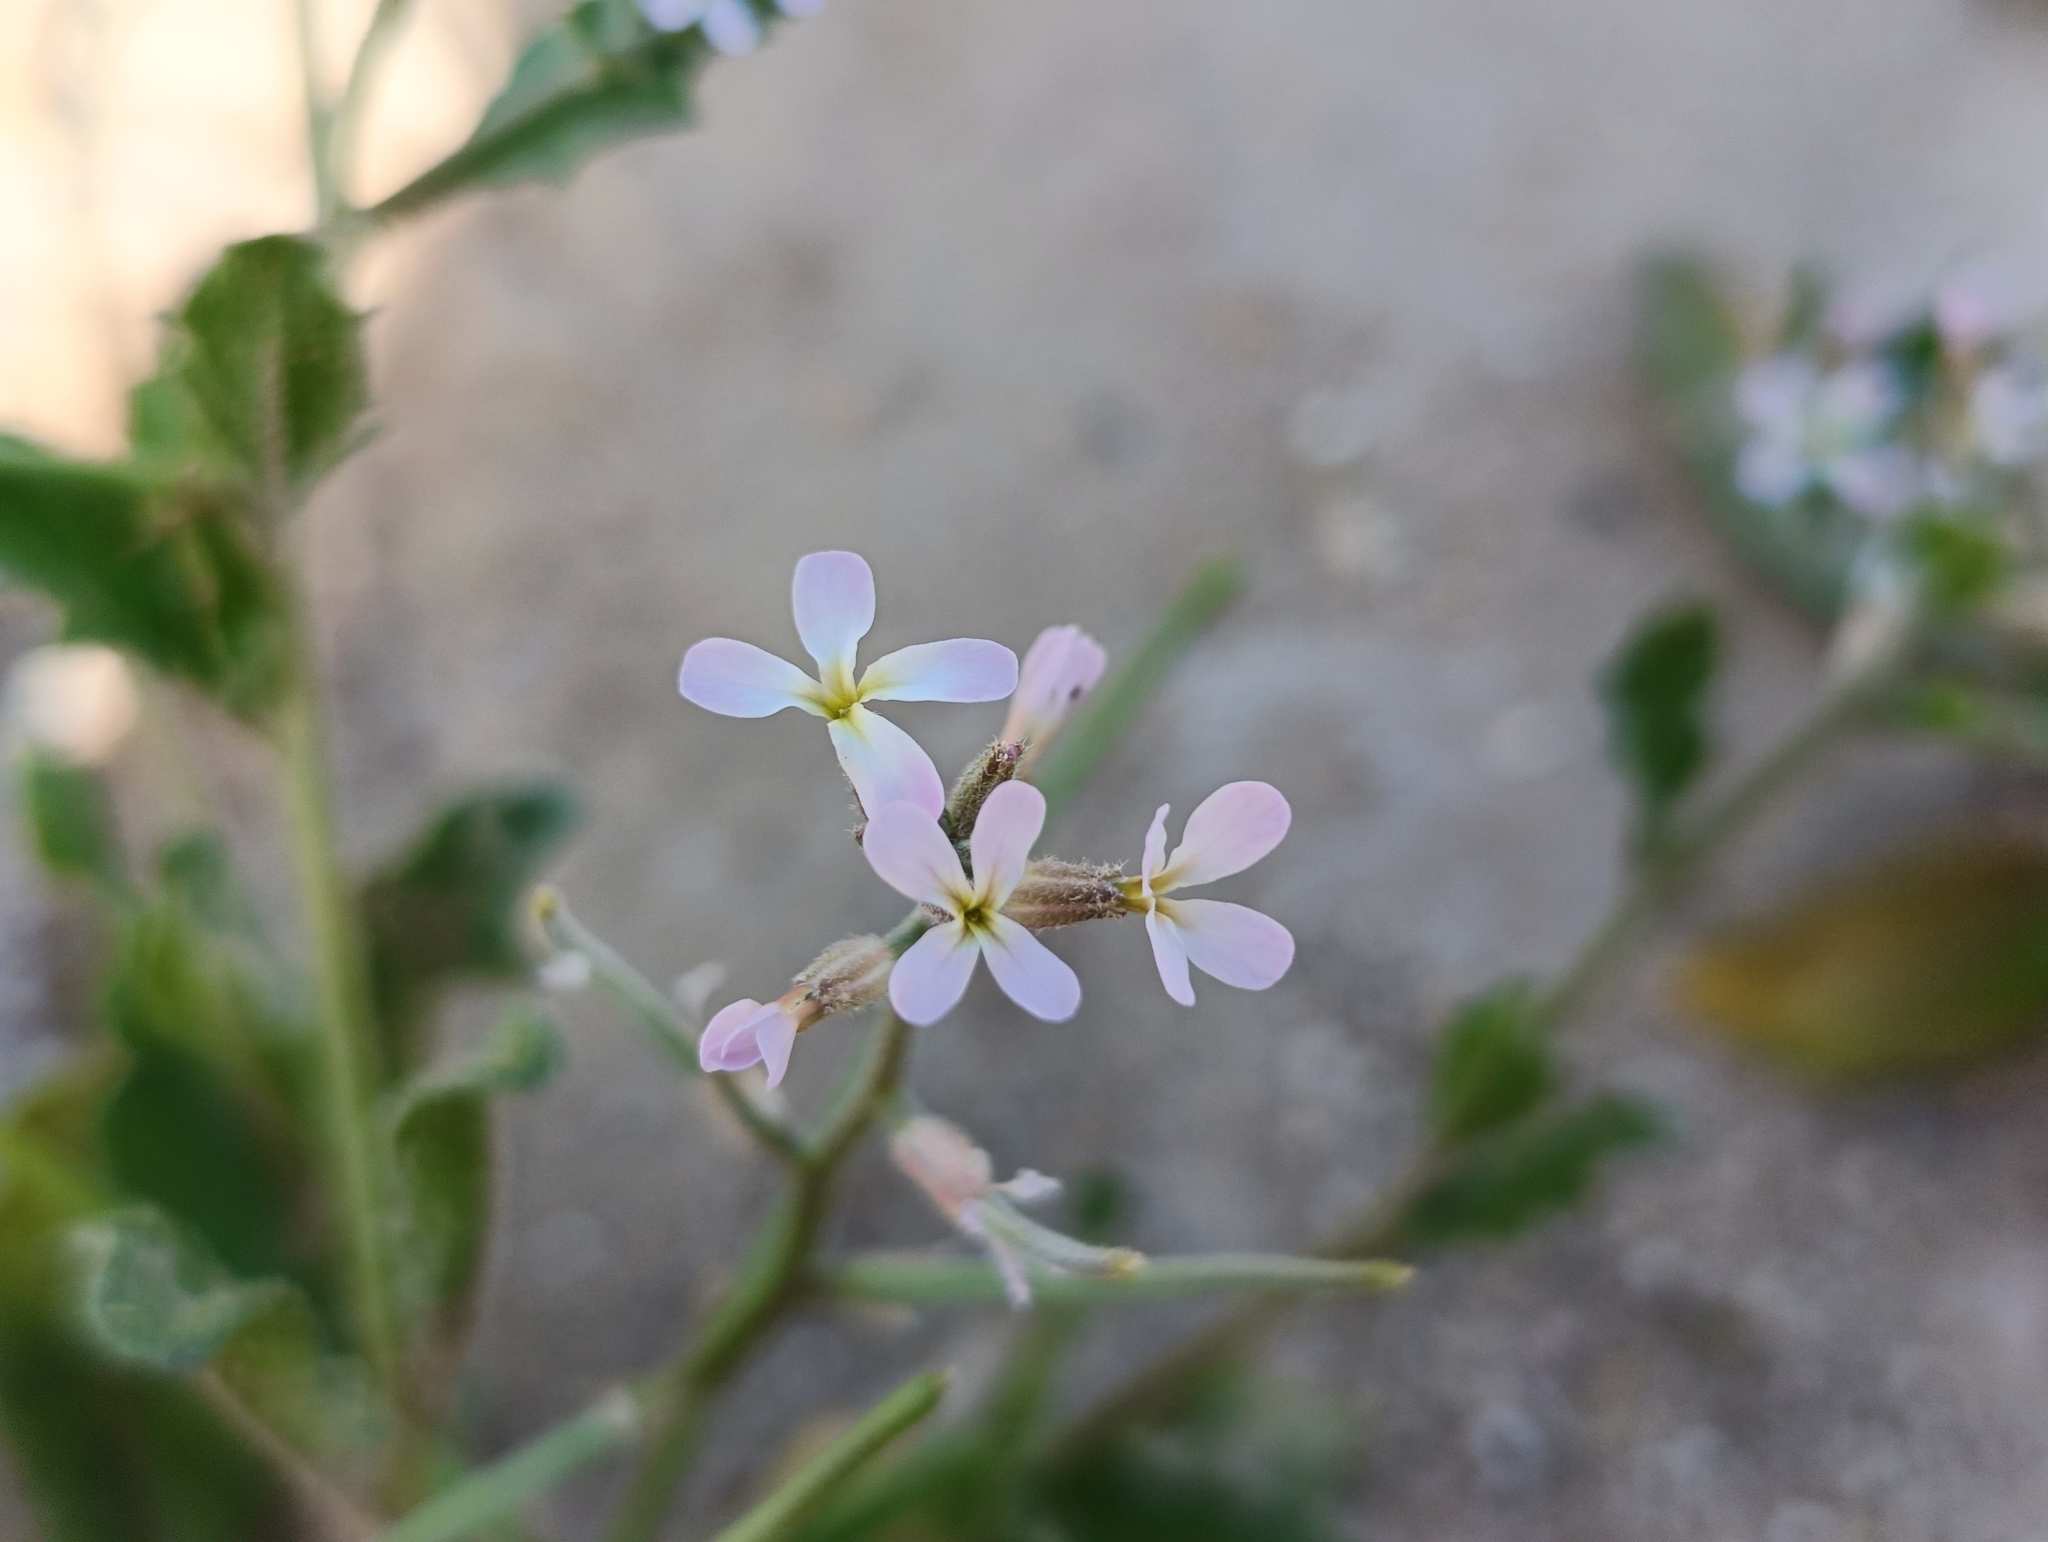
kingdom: Plantae
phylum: Tracheophyta
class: Magnoliopsida
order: Brassicales
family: Brassicaceae
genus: Strigosella
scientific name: Strigosella africana
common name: African mustard
